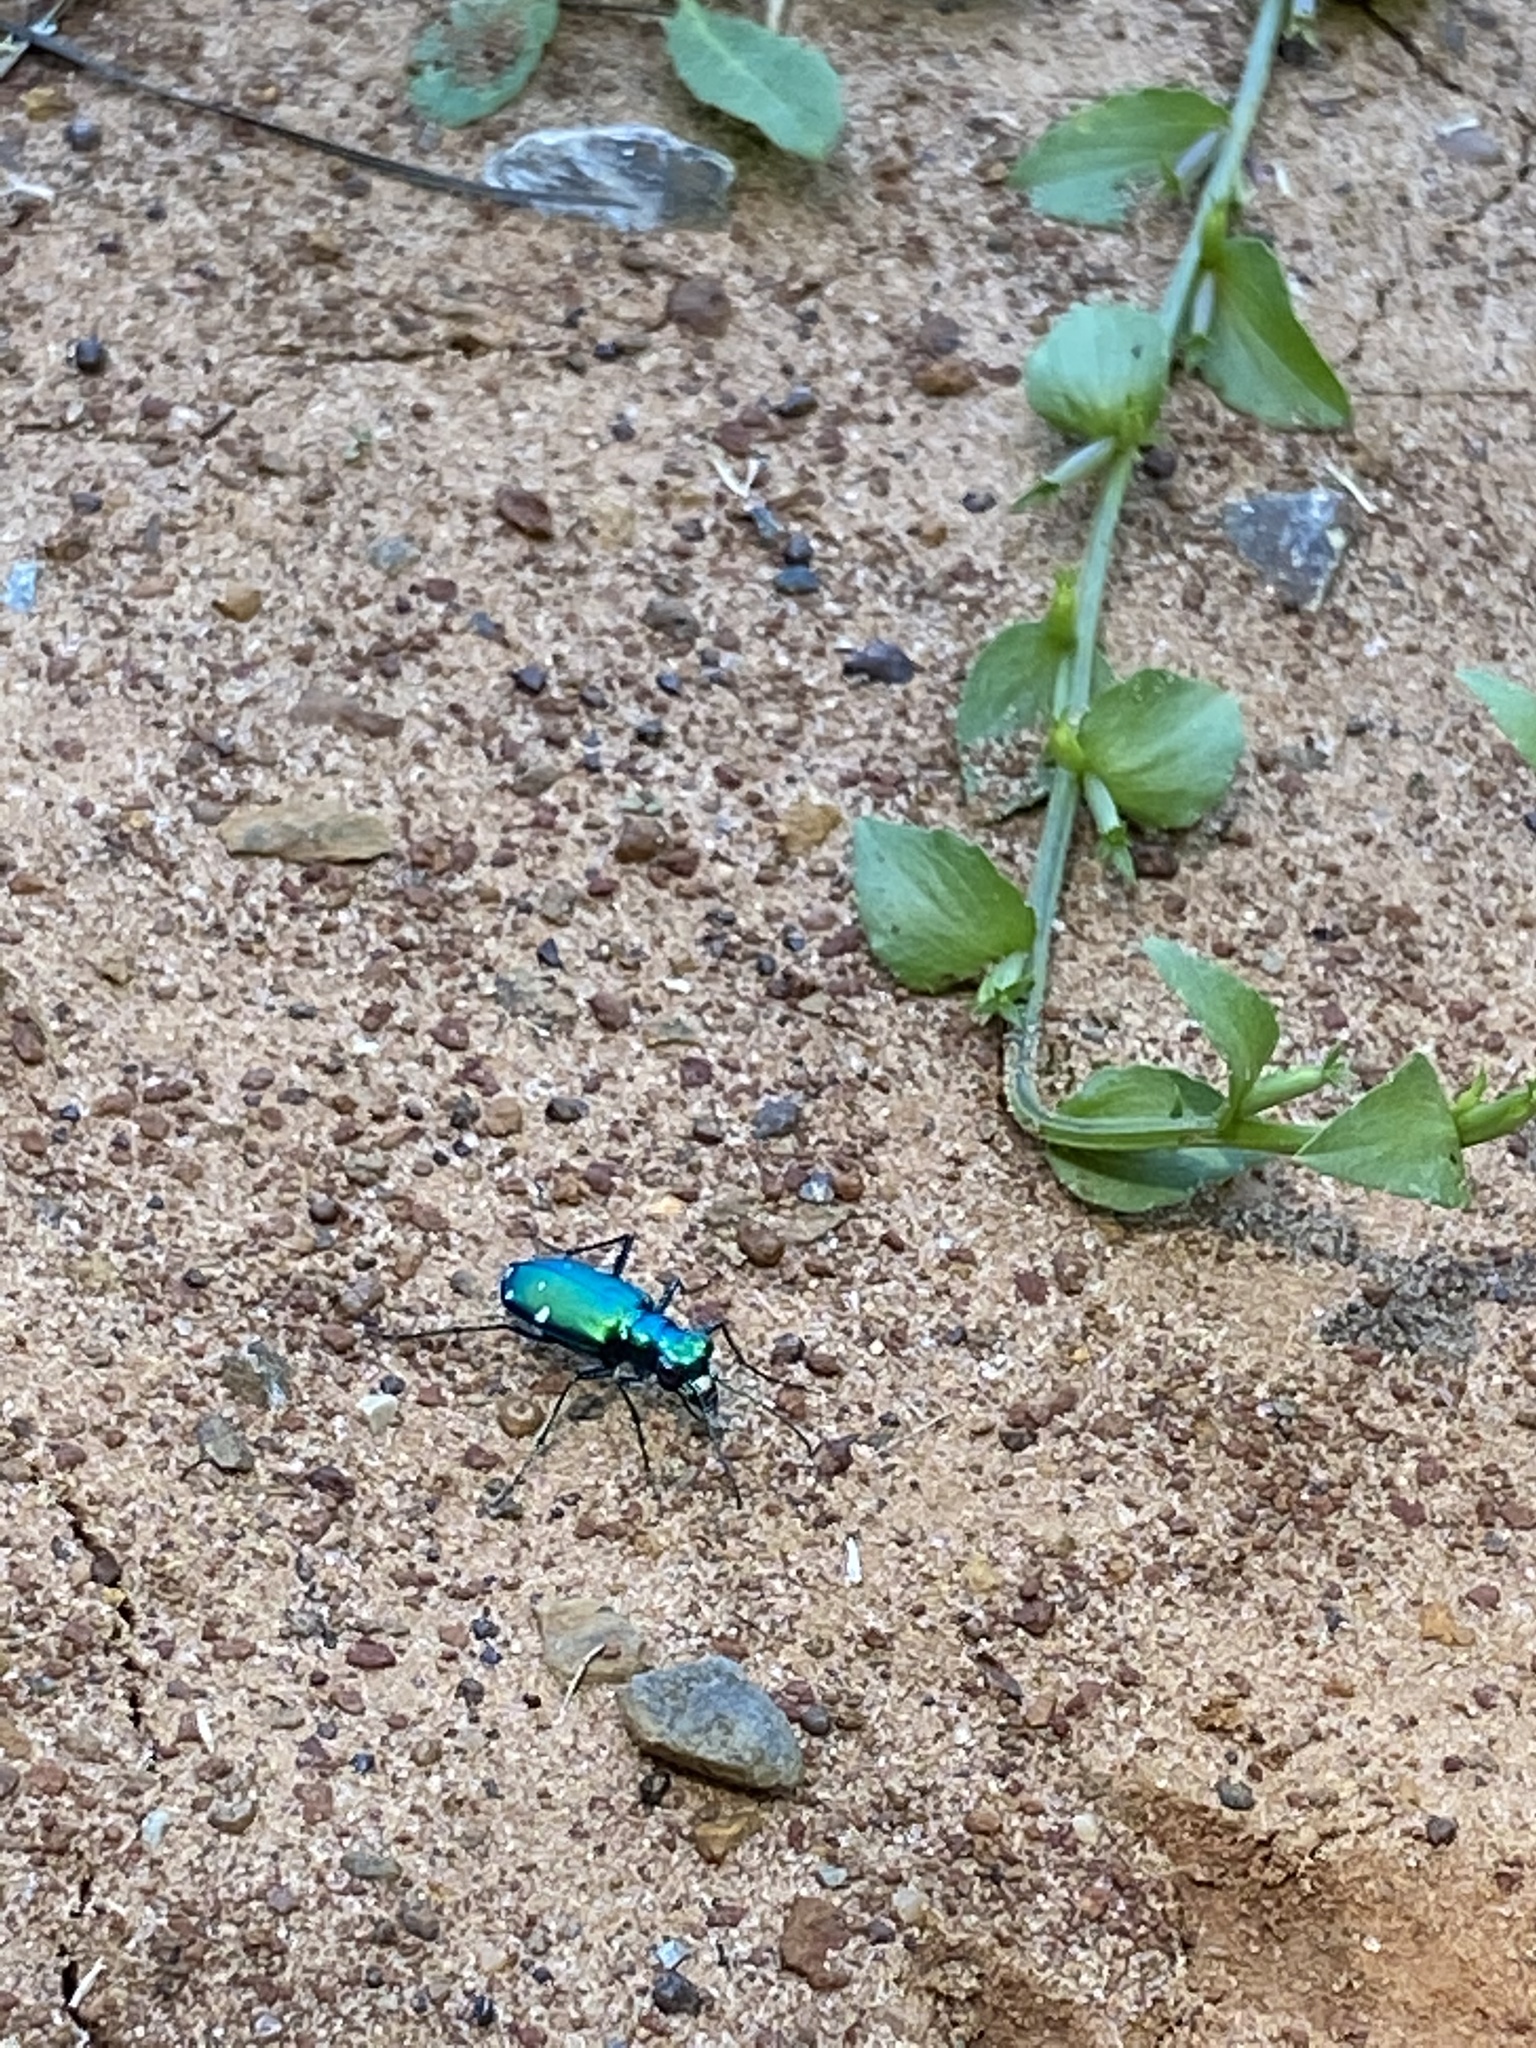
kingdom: Animalia
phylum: Arthropoda
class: Insecta
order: Coleoptera
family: Carabidae
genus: Cicindela
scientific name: Cicindela sexguttata
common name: Six-spotted tiger beetle
